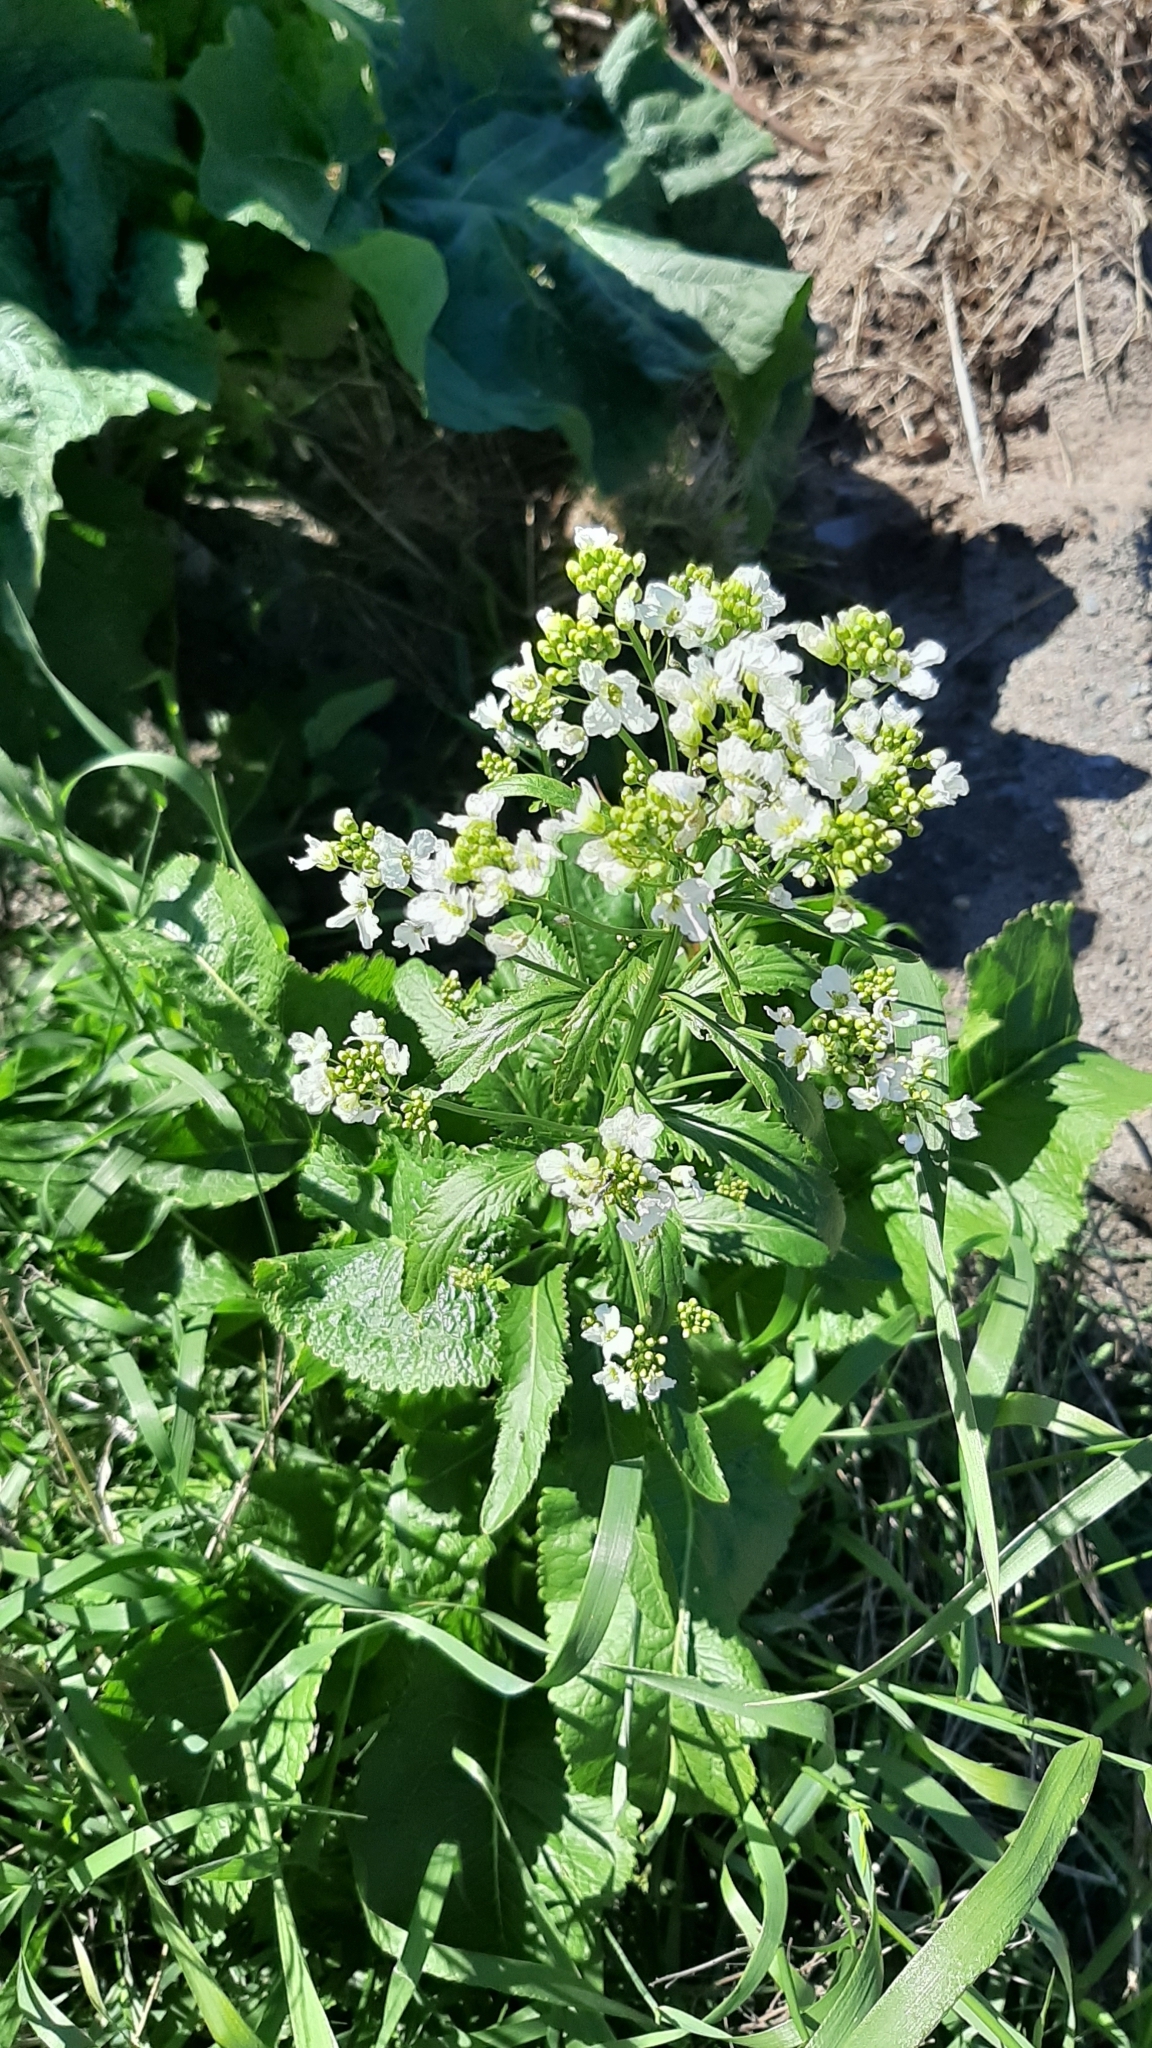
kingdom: Plantae
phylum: Tracheophyta
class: Magnoliopsida
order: Brassicales
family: Brassicaceae
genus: Armoracia
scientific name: Armoracia rusticana
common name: Horseradish
